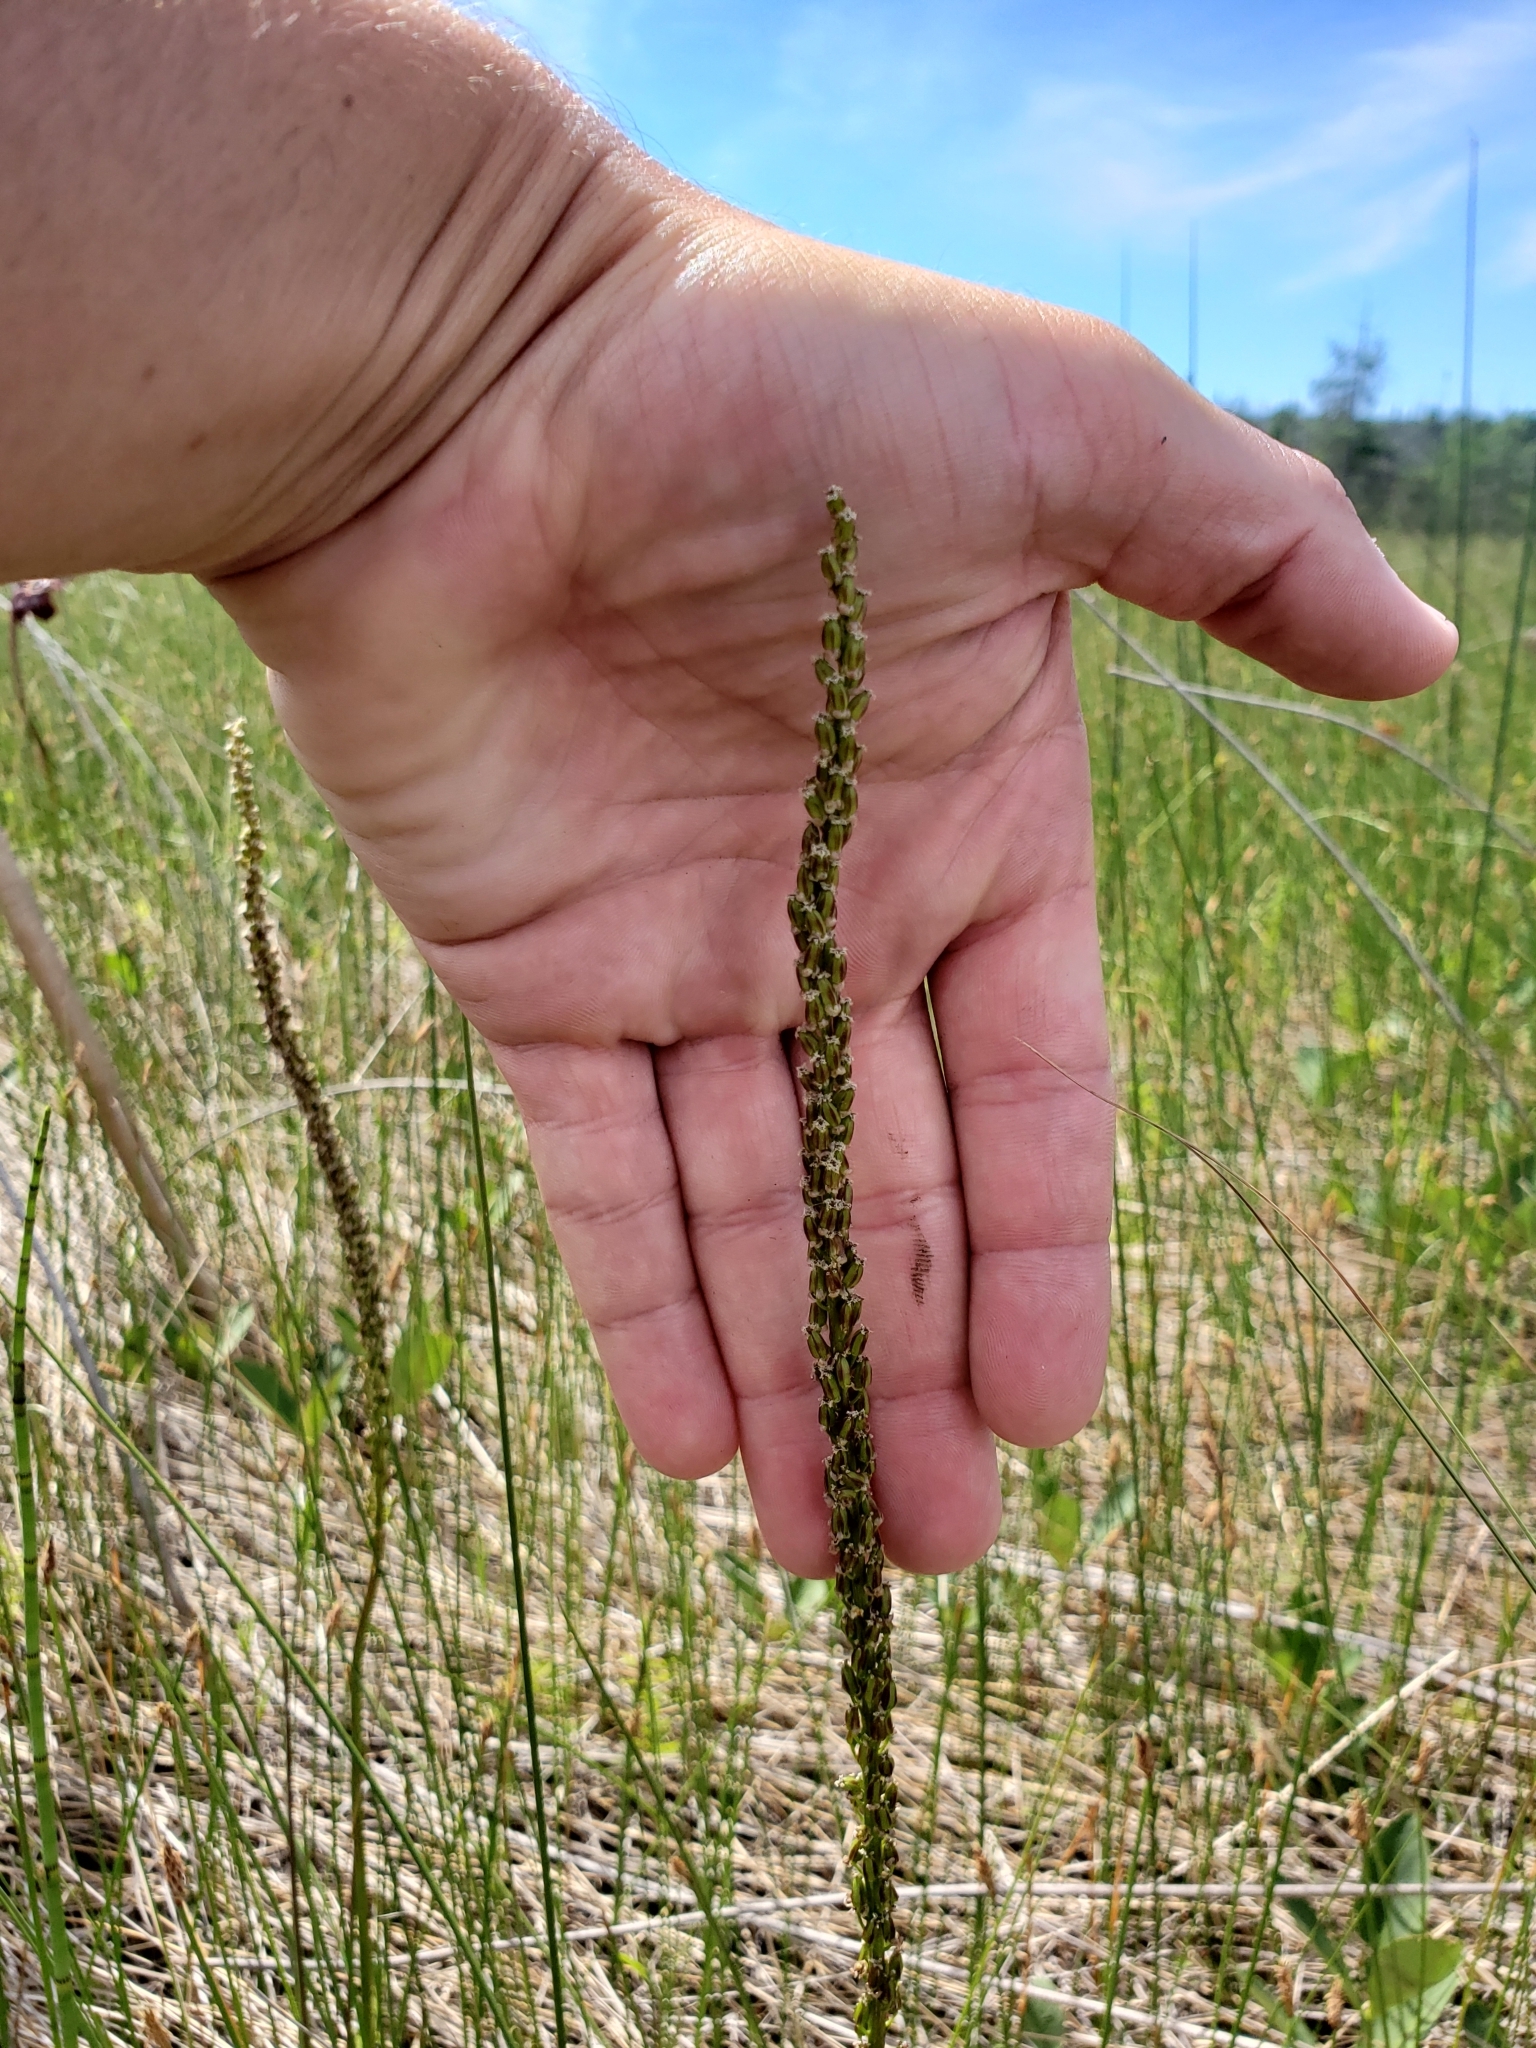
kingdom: Plantae
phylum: Tracheophyta
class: Liliopsida
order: Alismatales
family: Juncaginaceae
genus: Triglochin
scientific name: Triglochin maritima
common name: Sea arrowgrass
